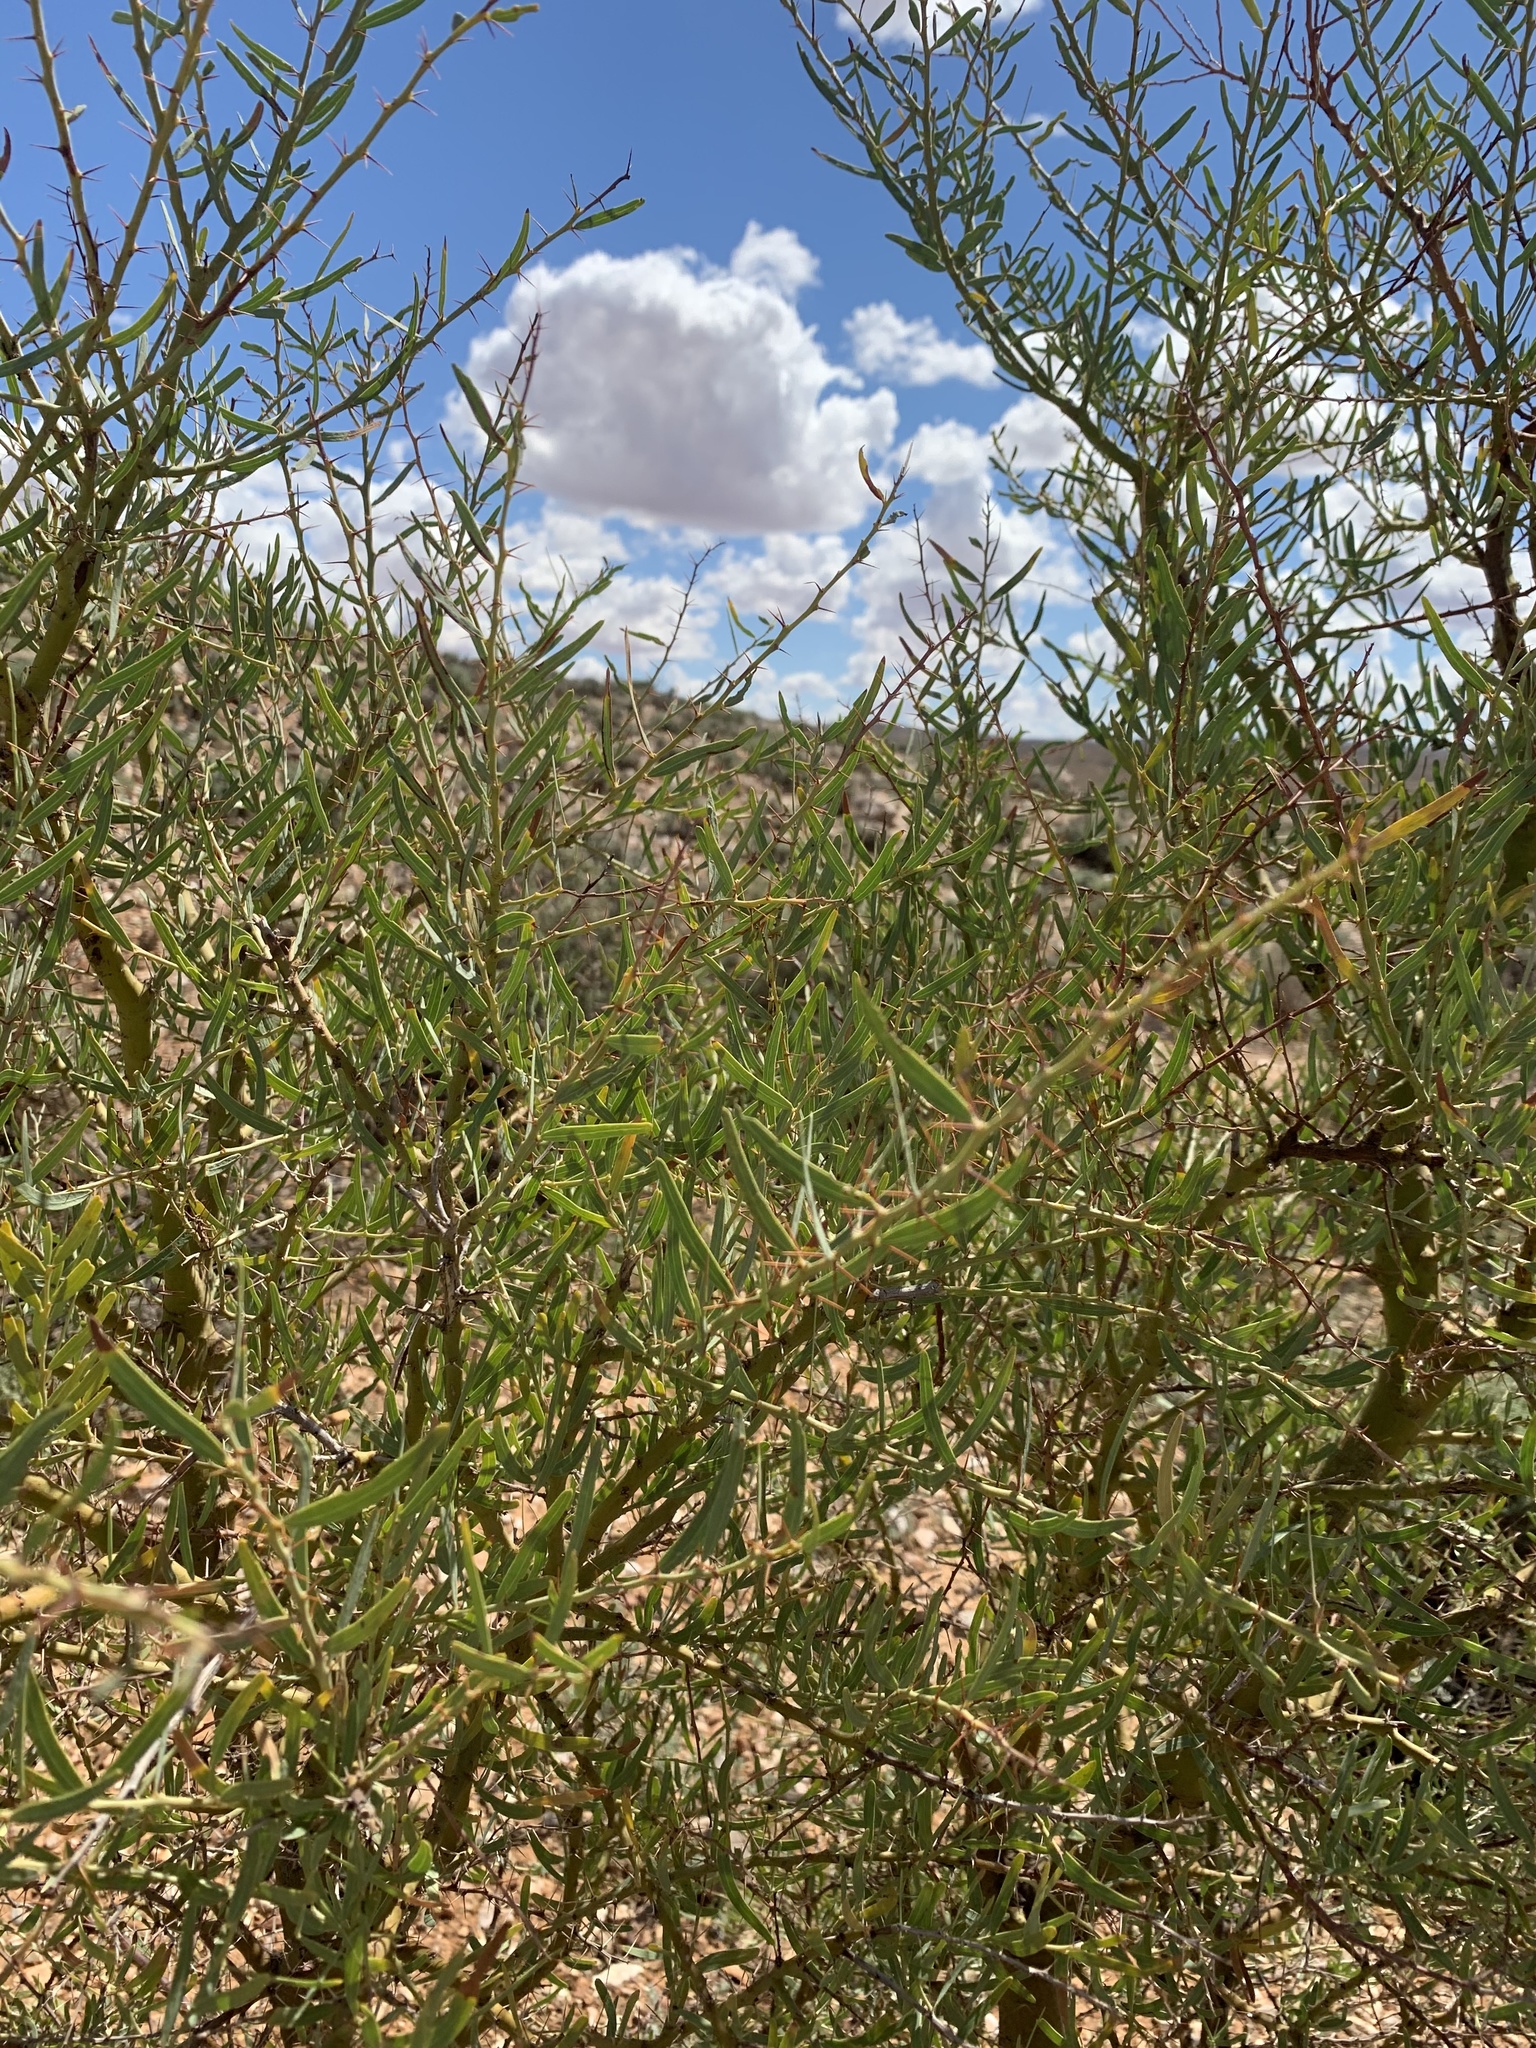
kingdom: Plantae
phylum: Tracheophyta
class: Magnoliopsida
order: Fabales
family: Fabaceae
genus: Acacia
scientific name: Acacia victoriae
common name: Bramble wattle
